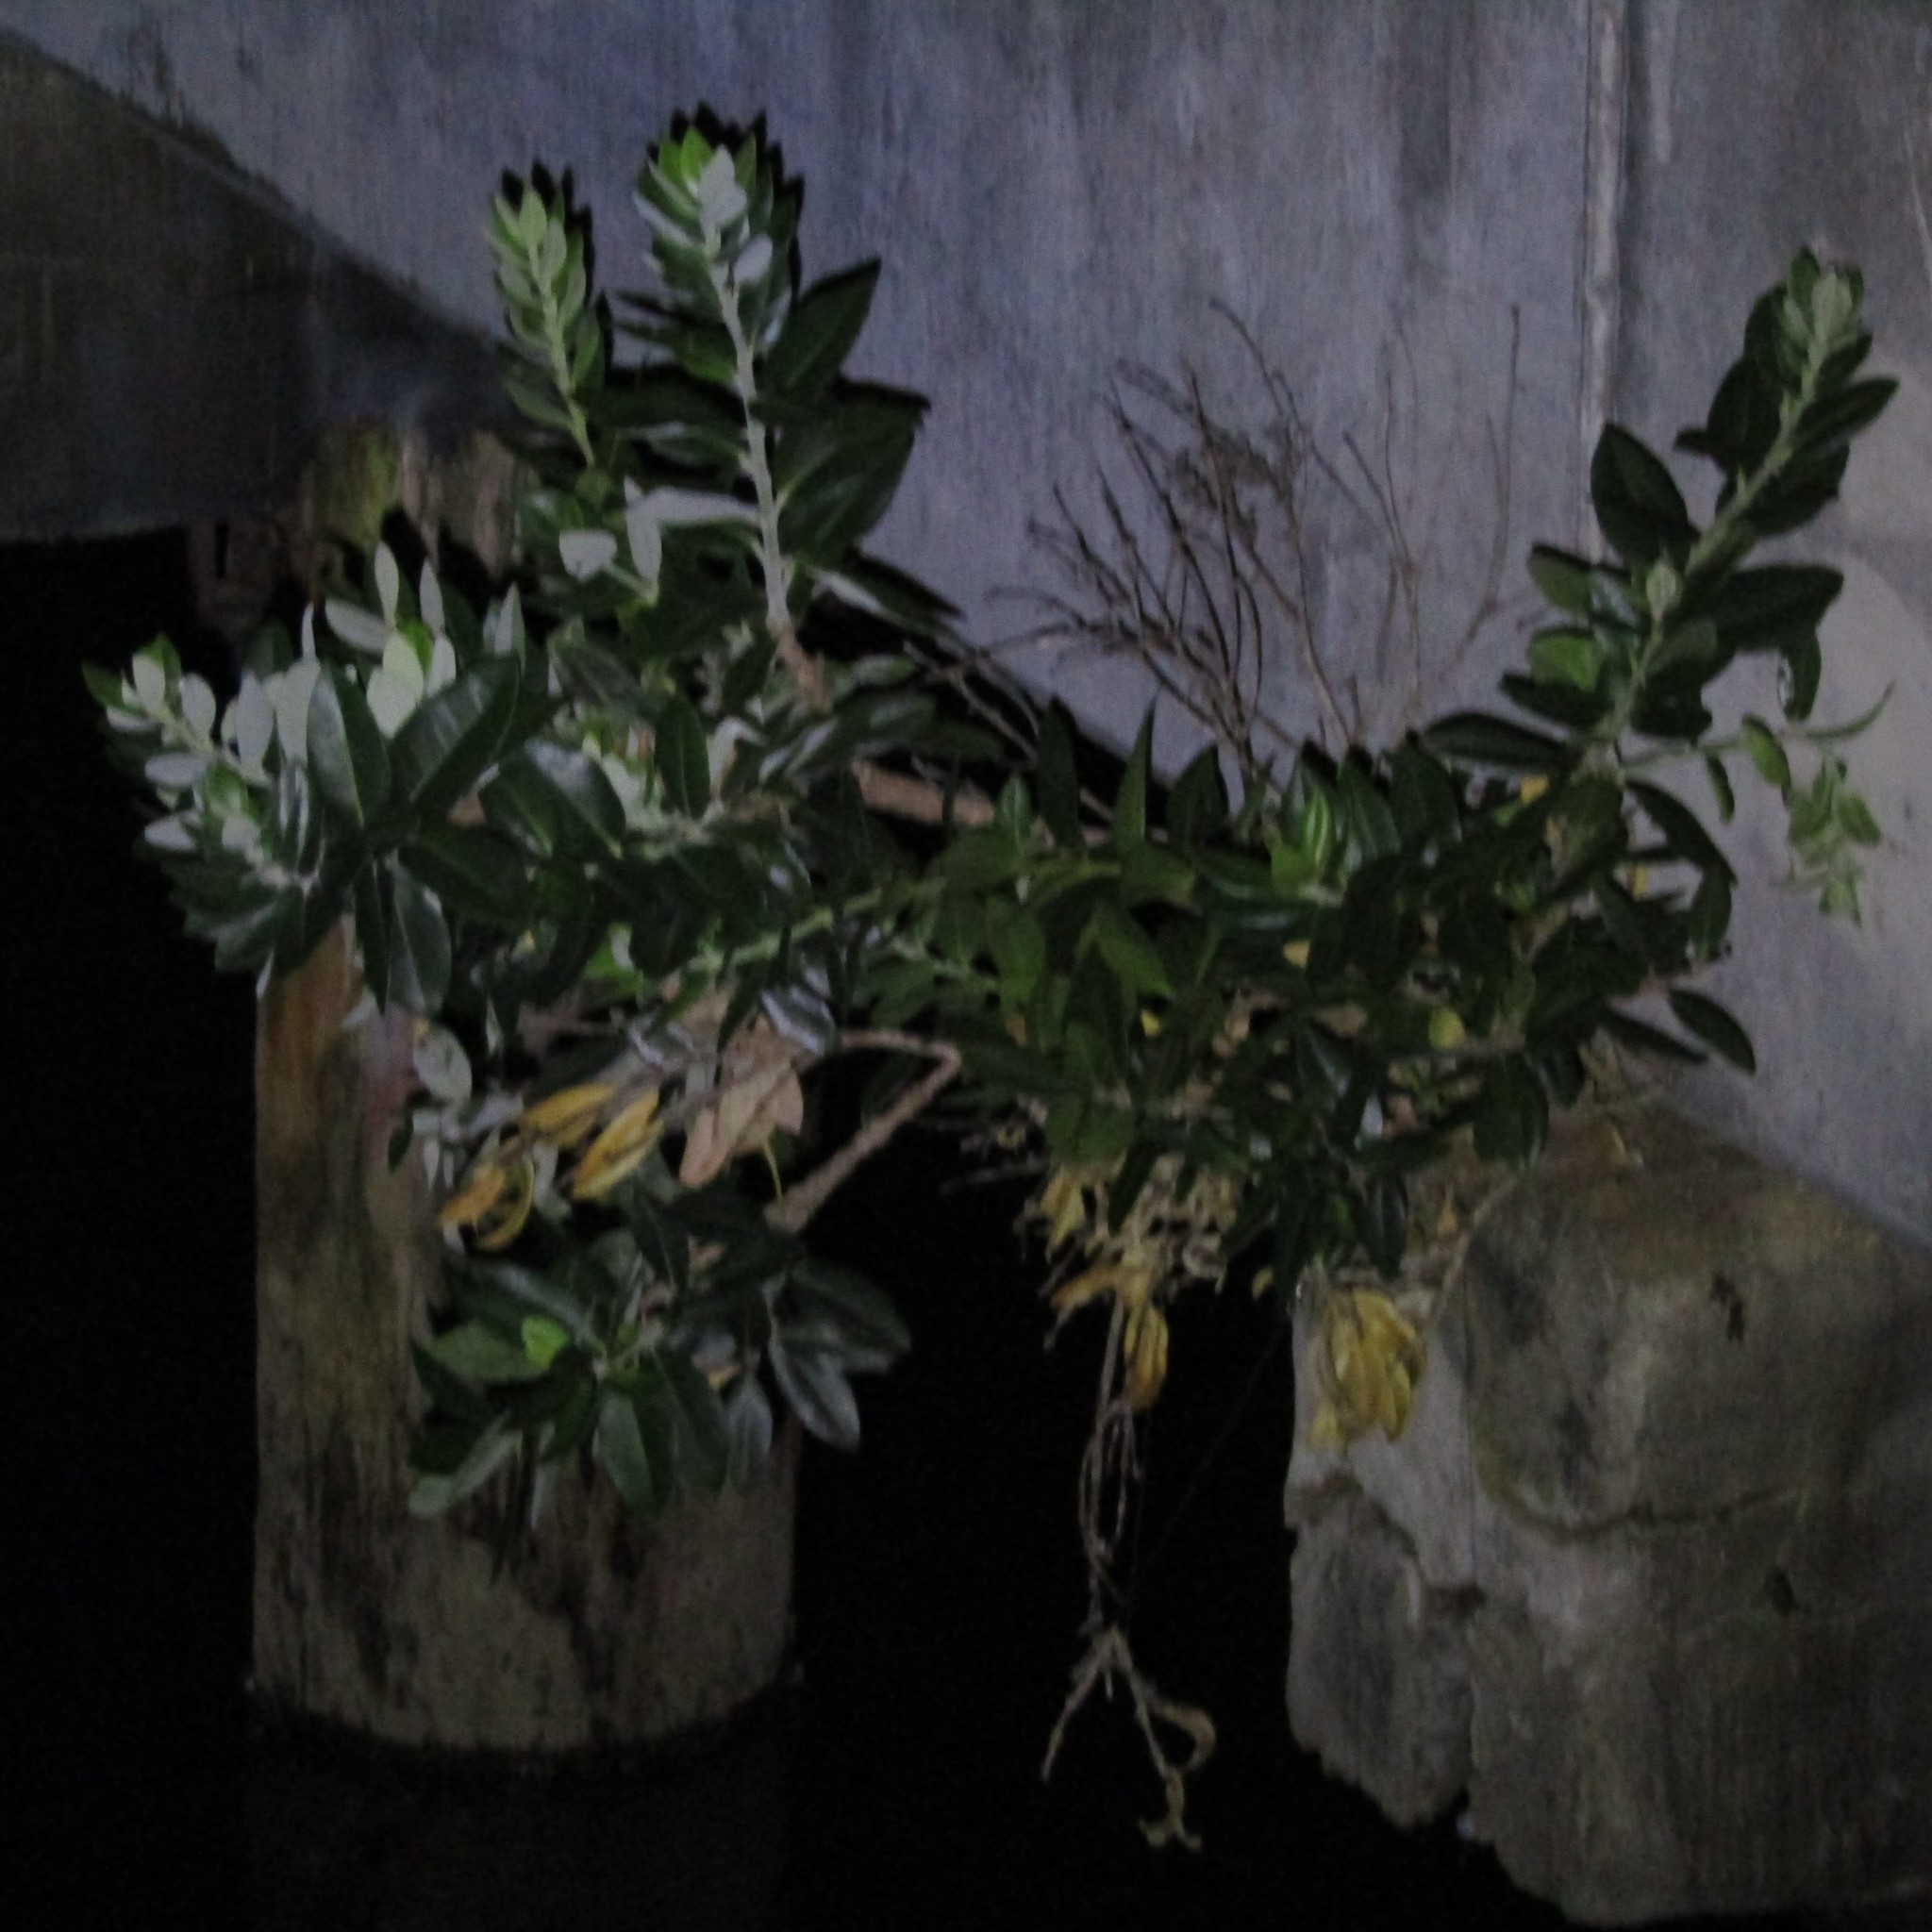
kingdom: Plantae
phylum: Tracheophyta
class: Magnoliopsida
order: Myrtales
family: Myrtaceae
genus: Metrosideros
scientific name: Metrosideros excelsa
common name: New zealand christmastree
